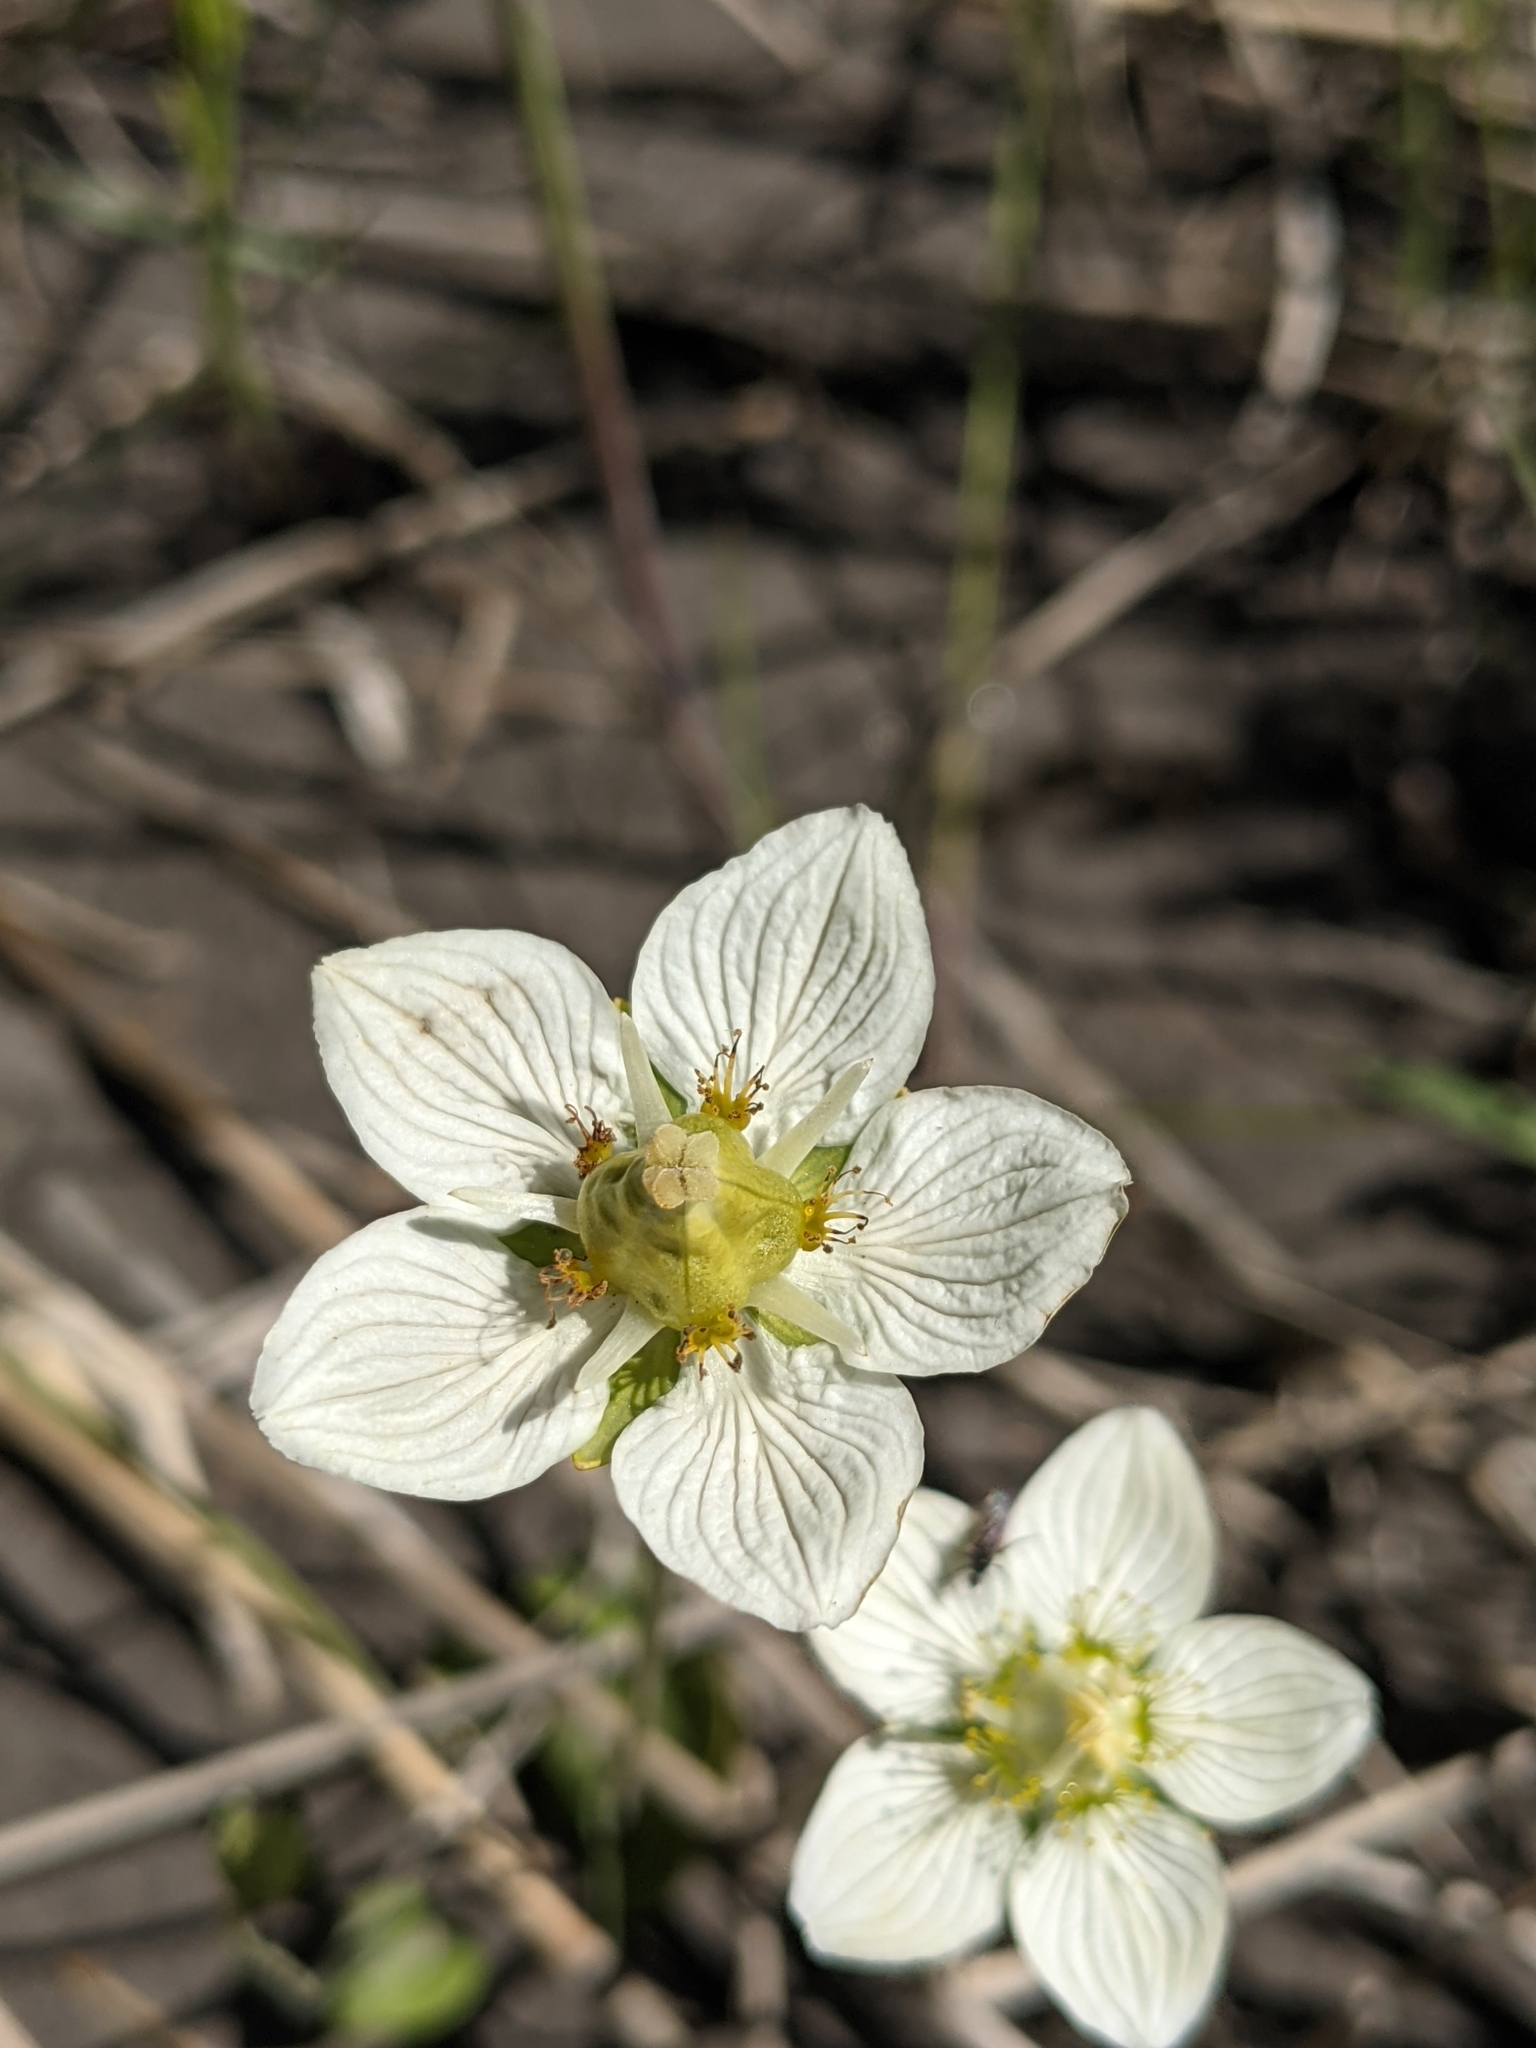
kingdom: Plantae
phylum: Tracheophyta
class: Magnoliopsida
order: Celastrales
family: Parnassiaceae
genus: Parnassia
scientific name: Parnassia palustris
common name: Grass-of-parnassus
